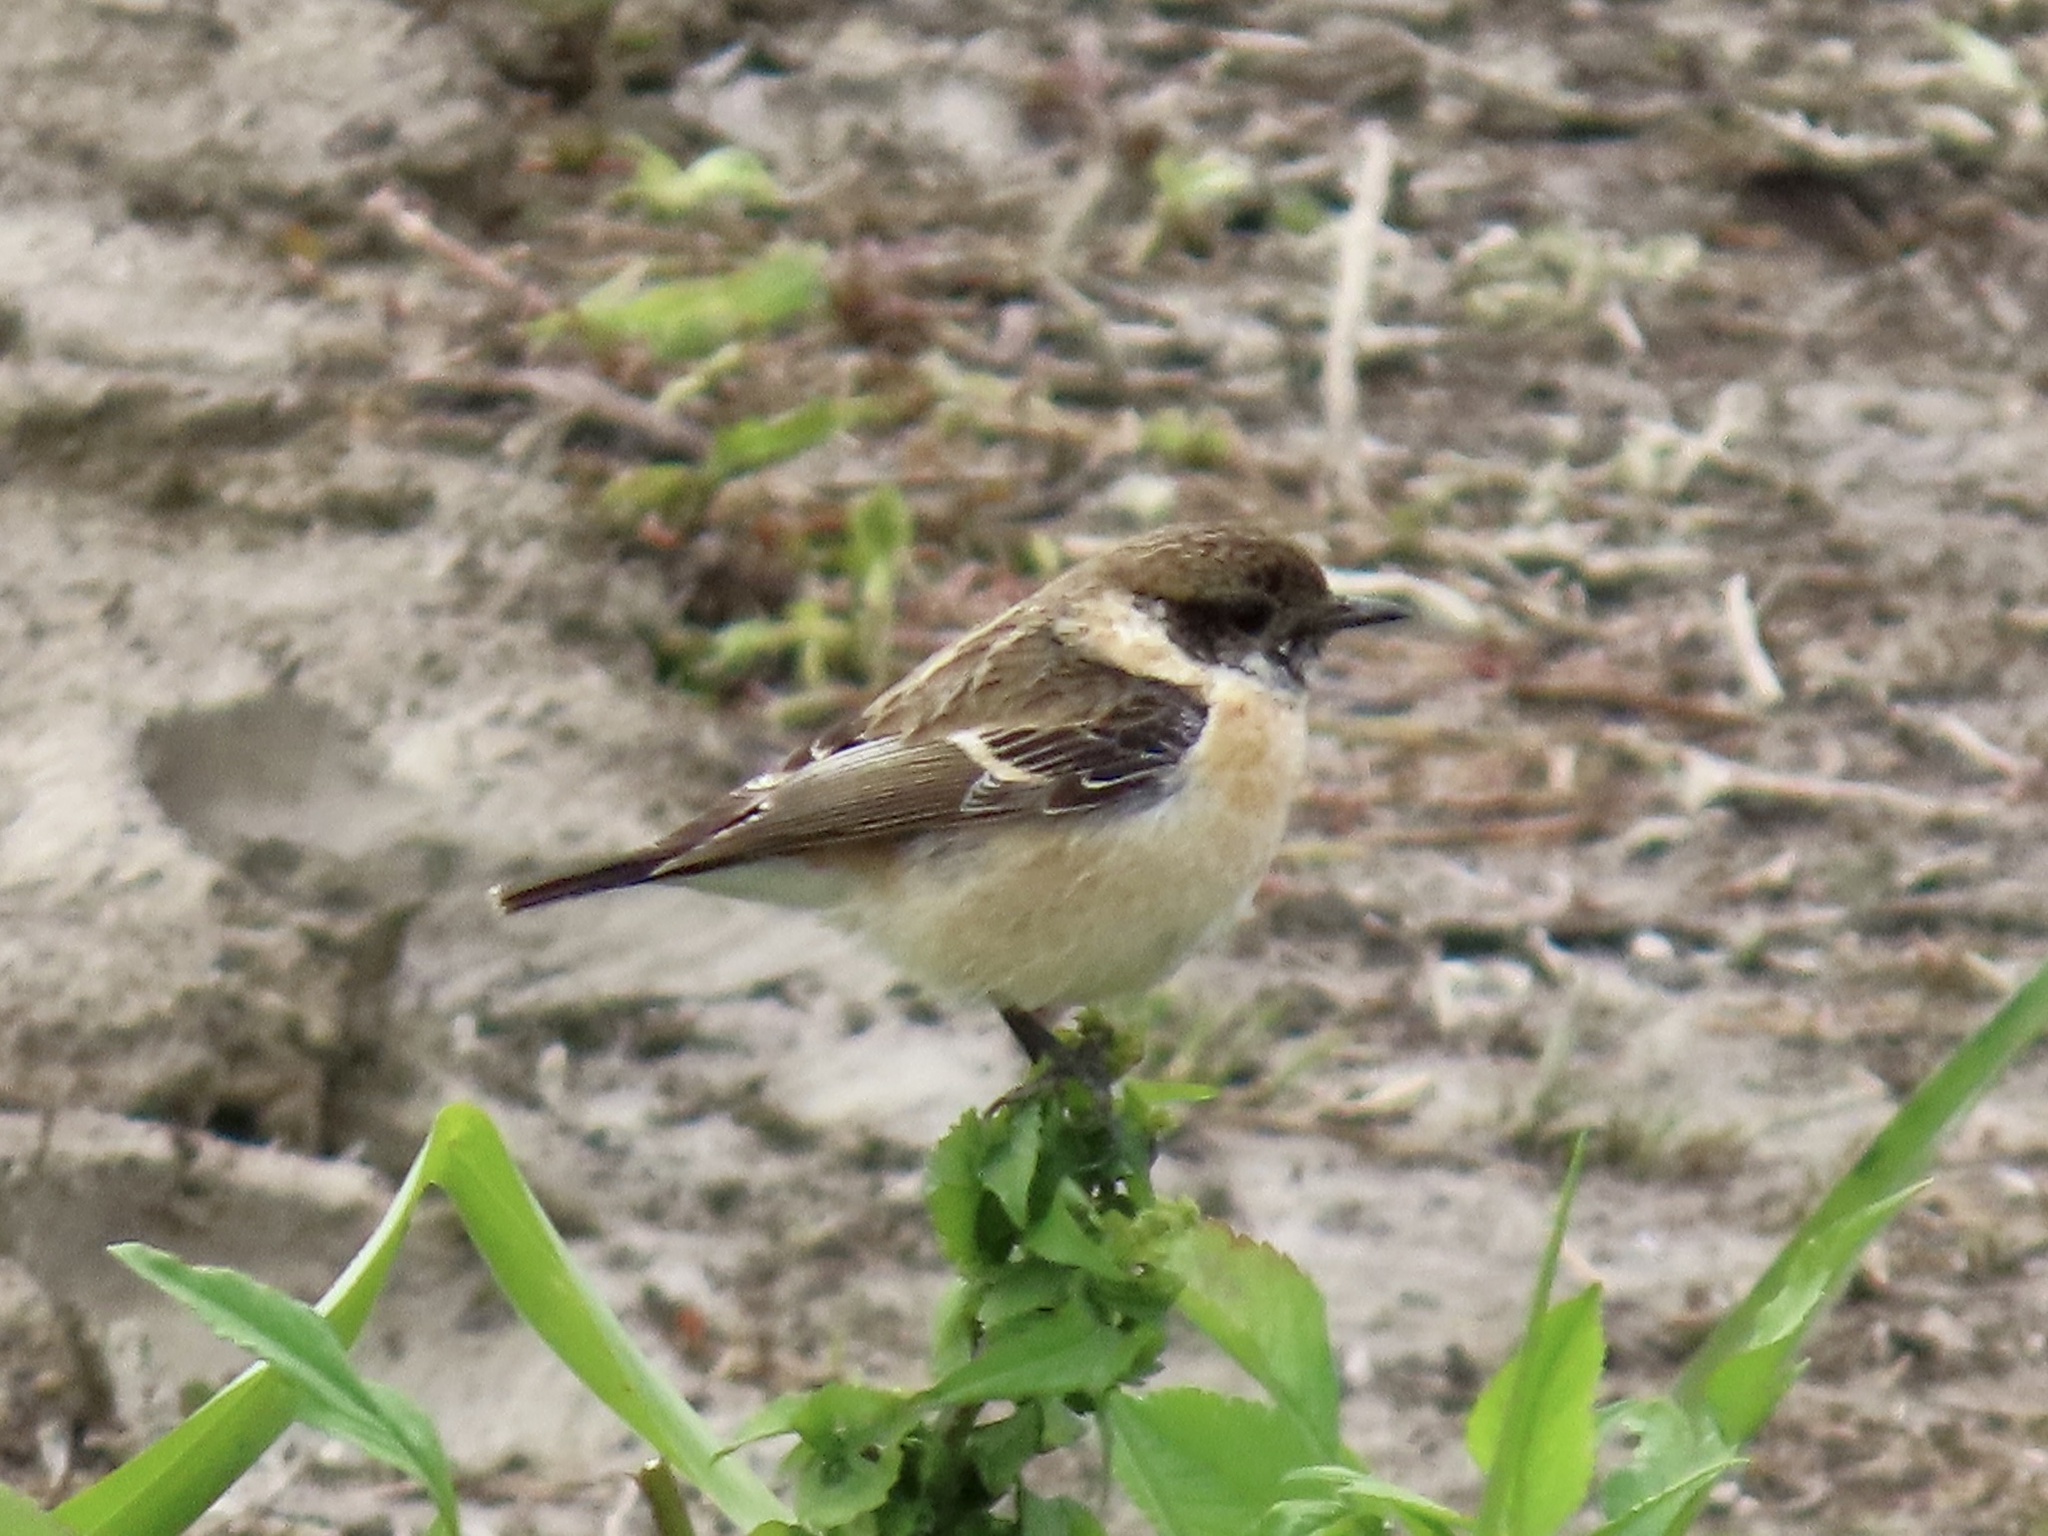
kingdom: Animalia
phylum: Chordata
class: Aves
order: Passeriformes
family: Muscicapidae
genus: Saxicola
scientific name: Saxicola stejnegeri
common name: Stejneger's stonechat
